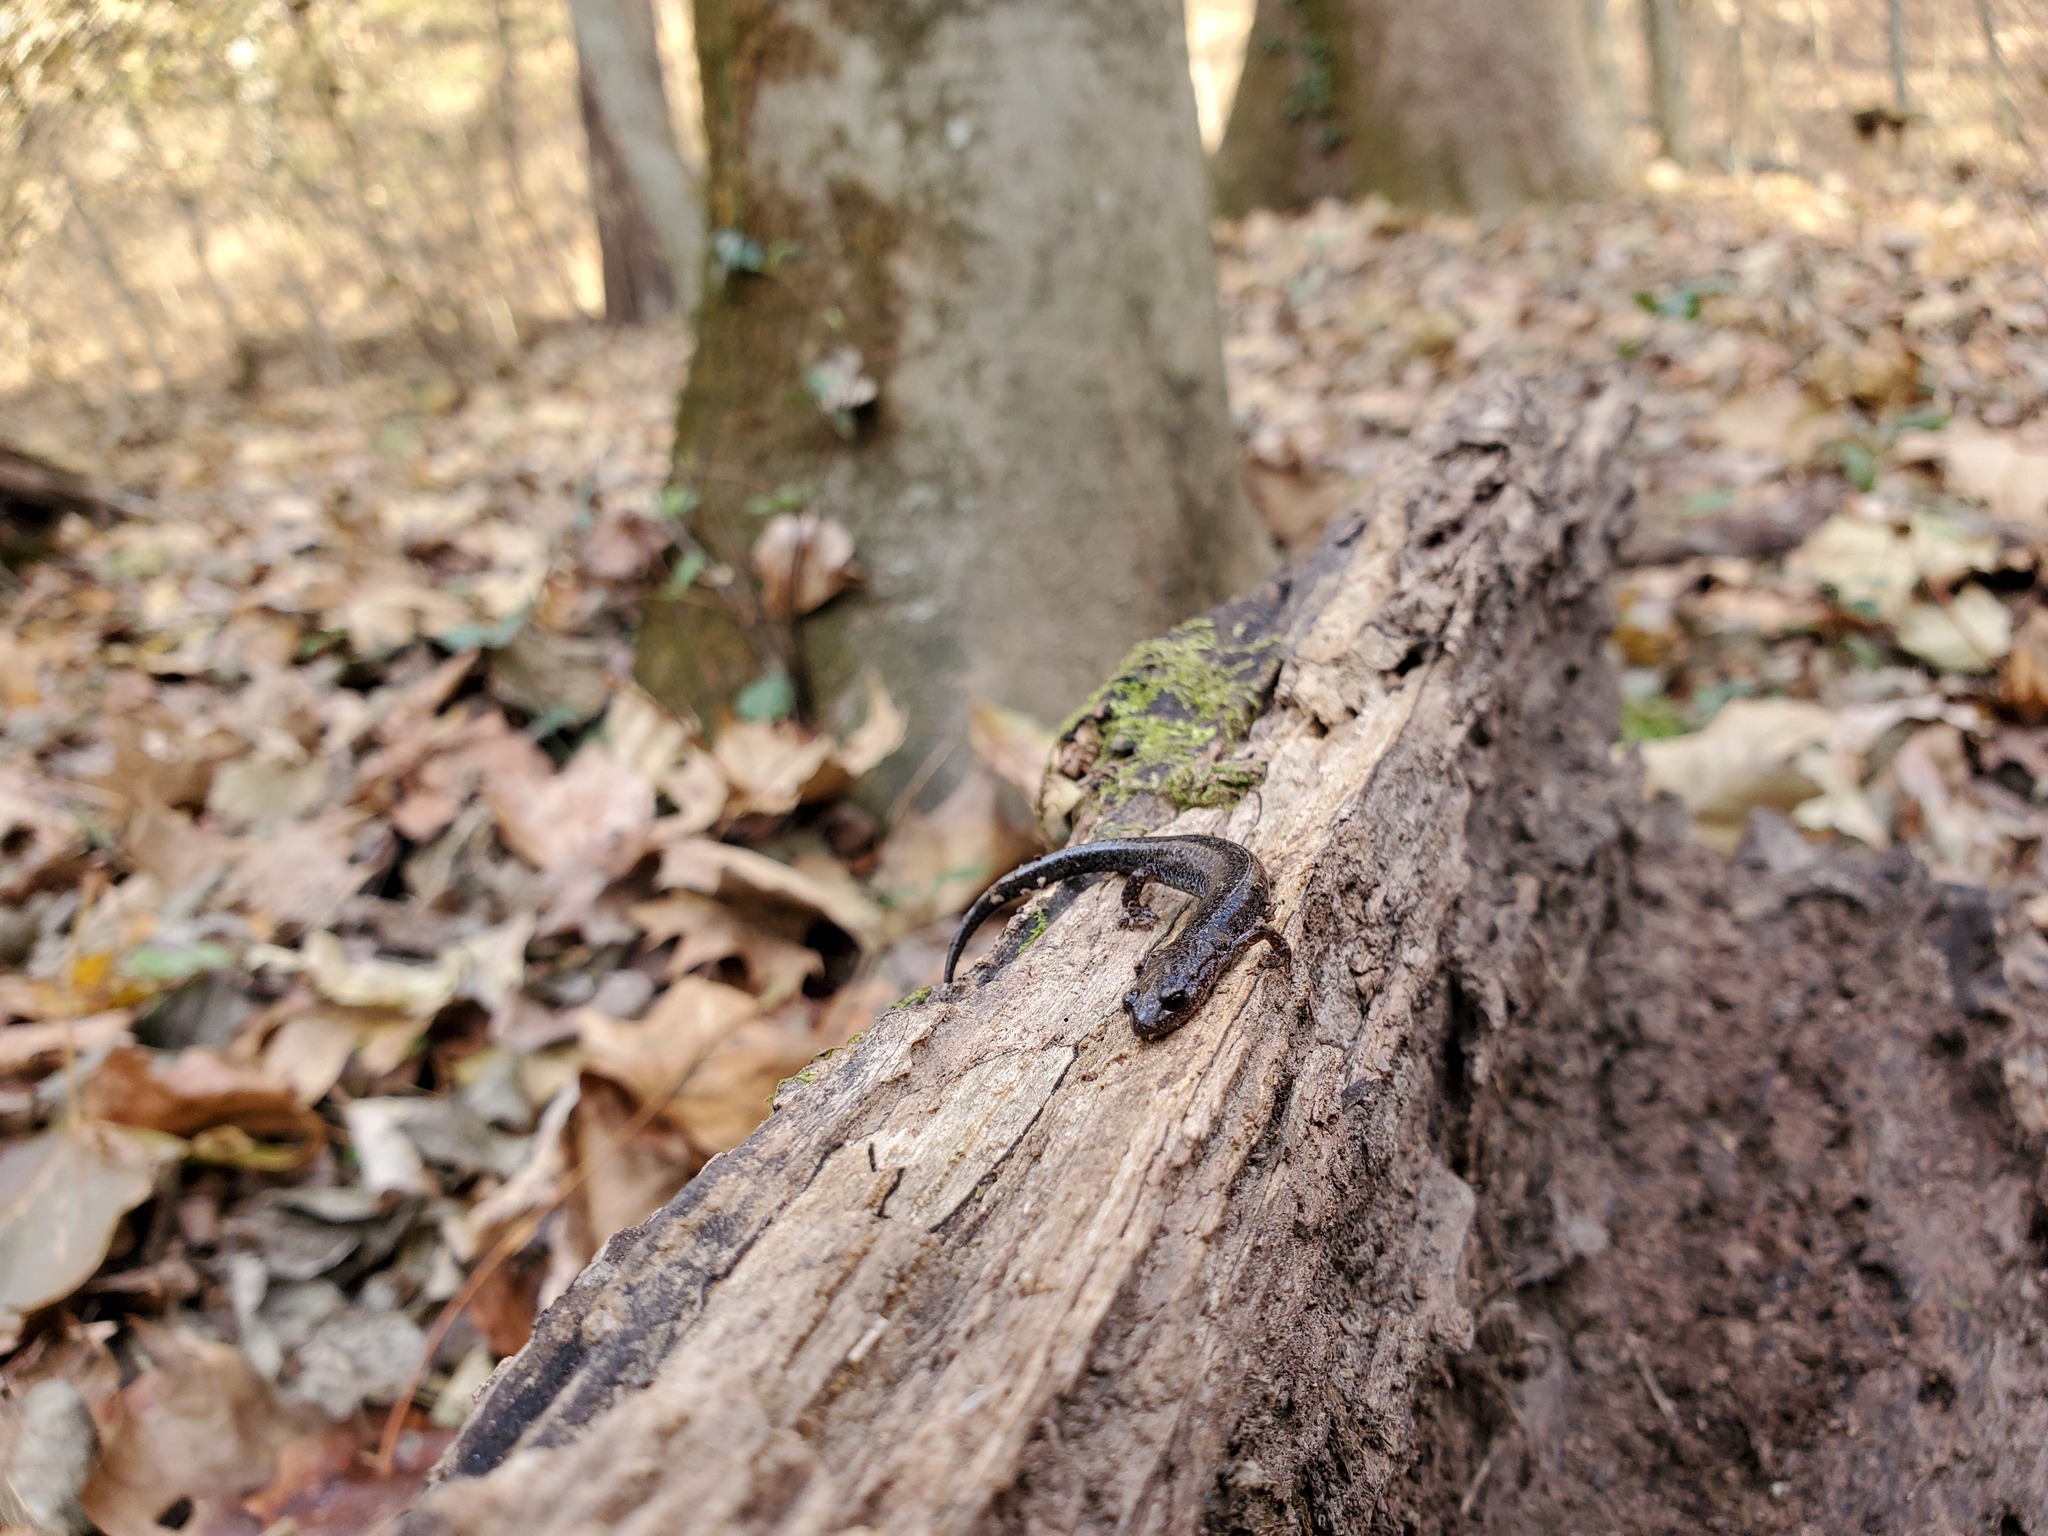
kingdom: Animalia
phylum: Chordata
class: Amphibia
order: Caudata
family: Plethodontidae
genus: Plethodon
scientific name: Plethodon dorsalis
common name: Northern zigzag salamander
